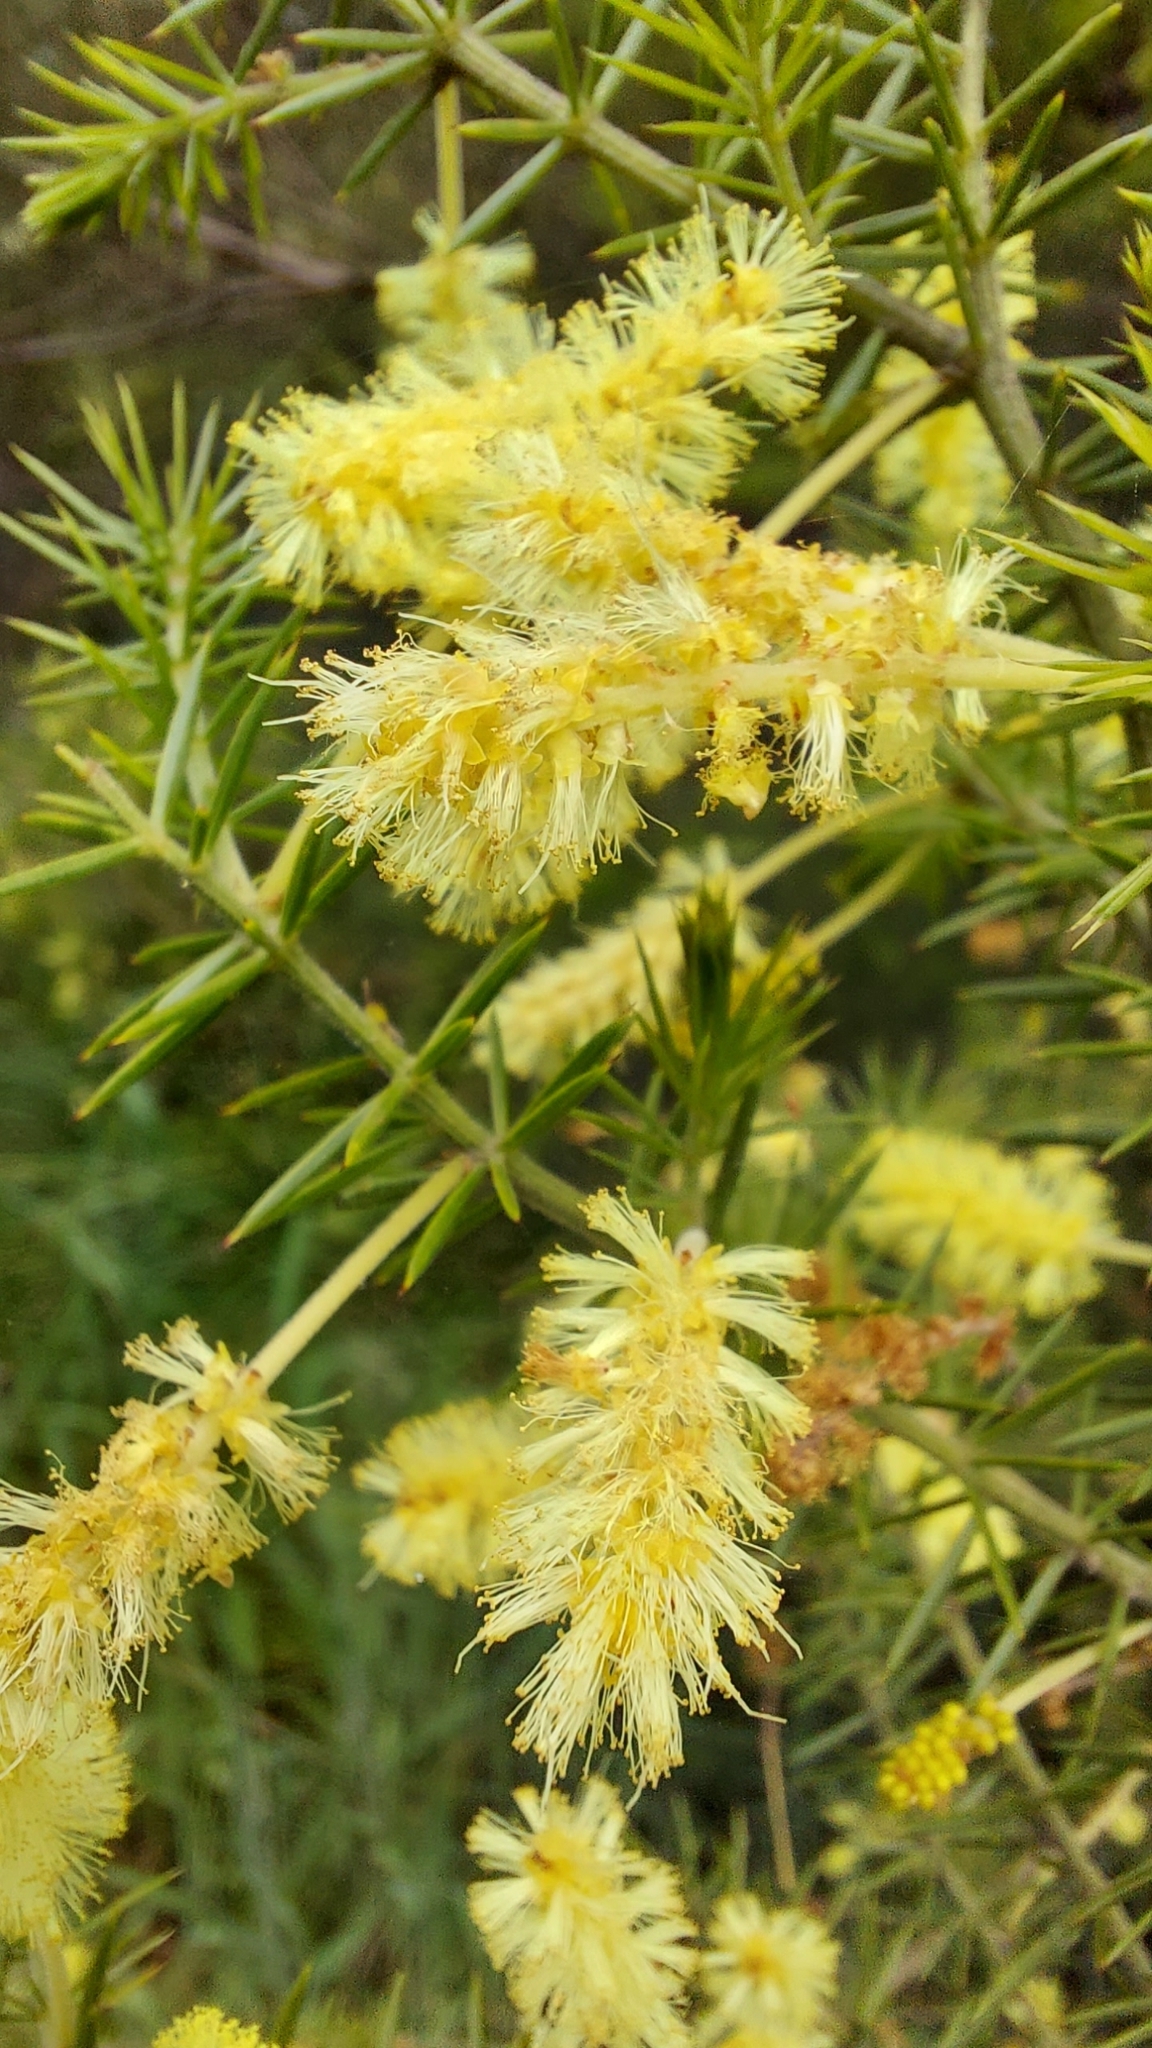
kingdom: Plantae
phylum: Tracheophyta
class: Magnoliopsida
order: Fabales
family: Fabaceae
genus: Acacia
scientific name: Acacia verticillata
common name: Prickly moses
